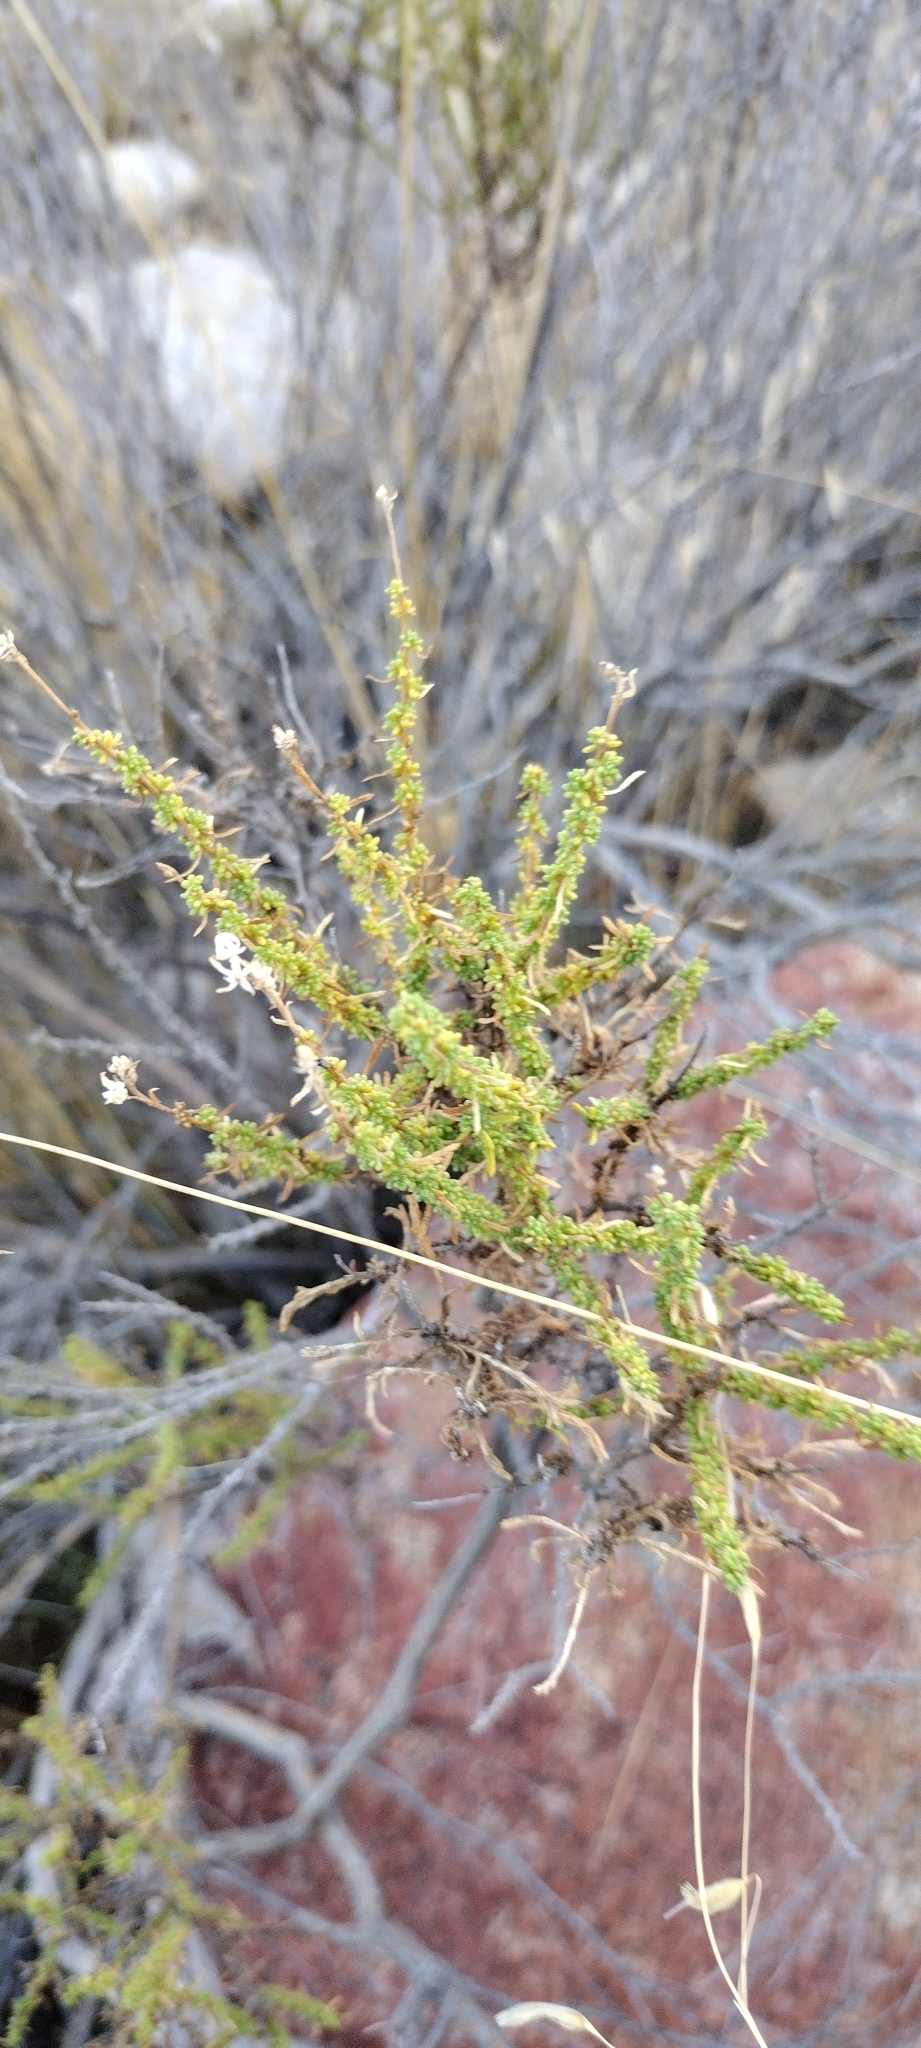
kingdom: Plantae
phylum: Tracheophyta
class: Magnoliopsida
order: Rosales
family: Rosaceae
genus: Adenostoma
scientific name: Adenostoma fasciculatum
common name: Chamise
